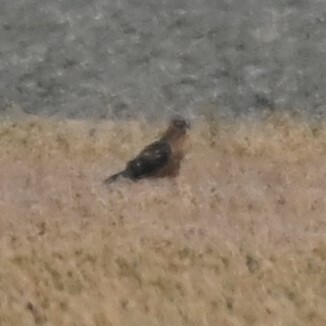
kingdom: Animalia
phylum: Chordata
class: Aves
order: Accipitriformes
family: Accipitridae
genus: Circus
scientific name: Circus cyaneus
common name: Hen harrier
